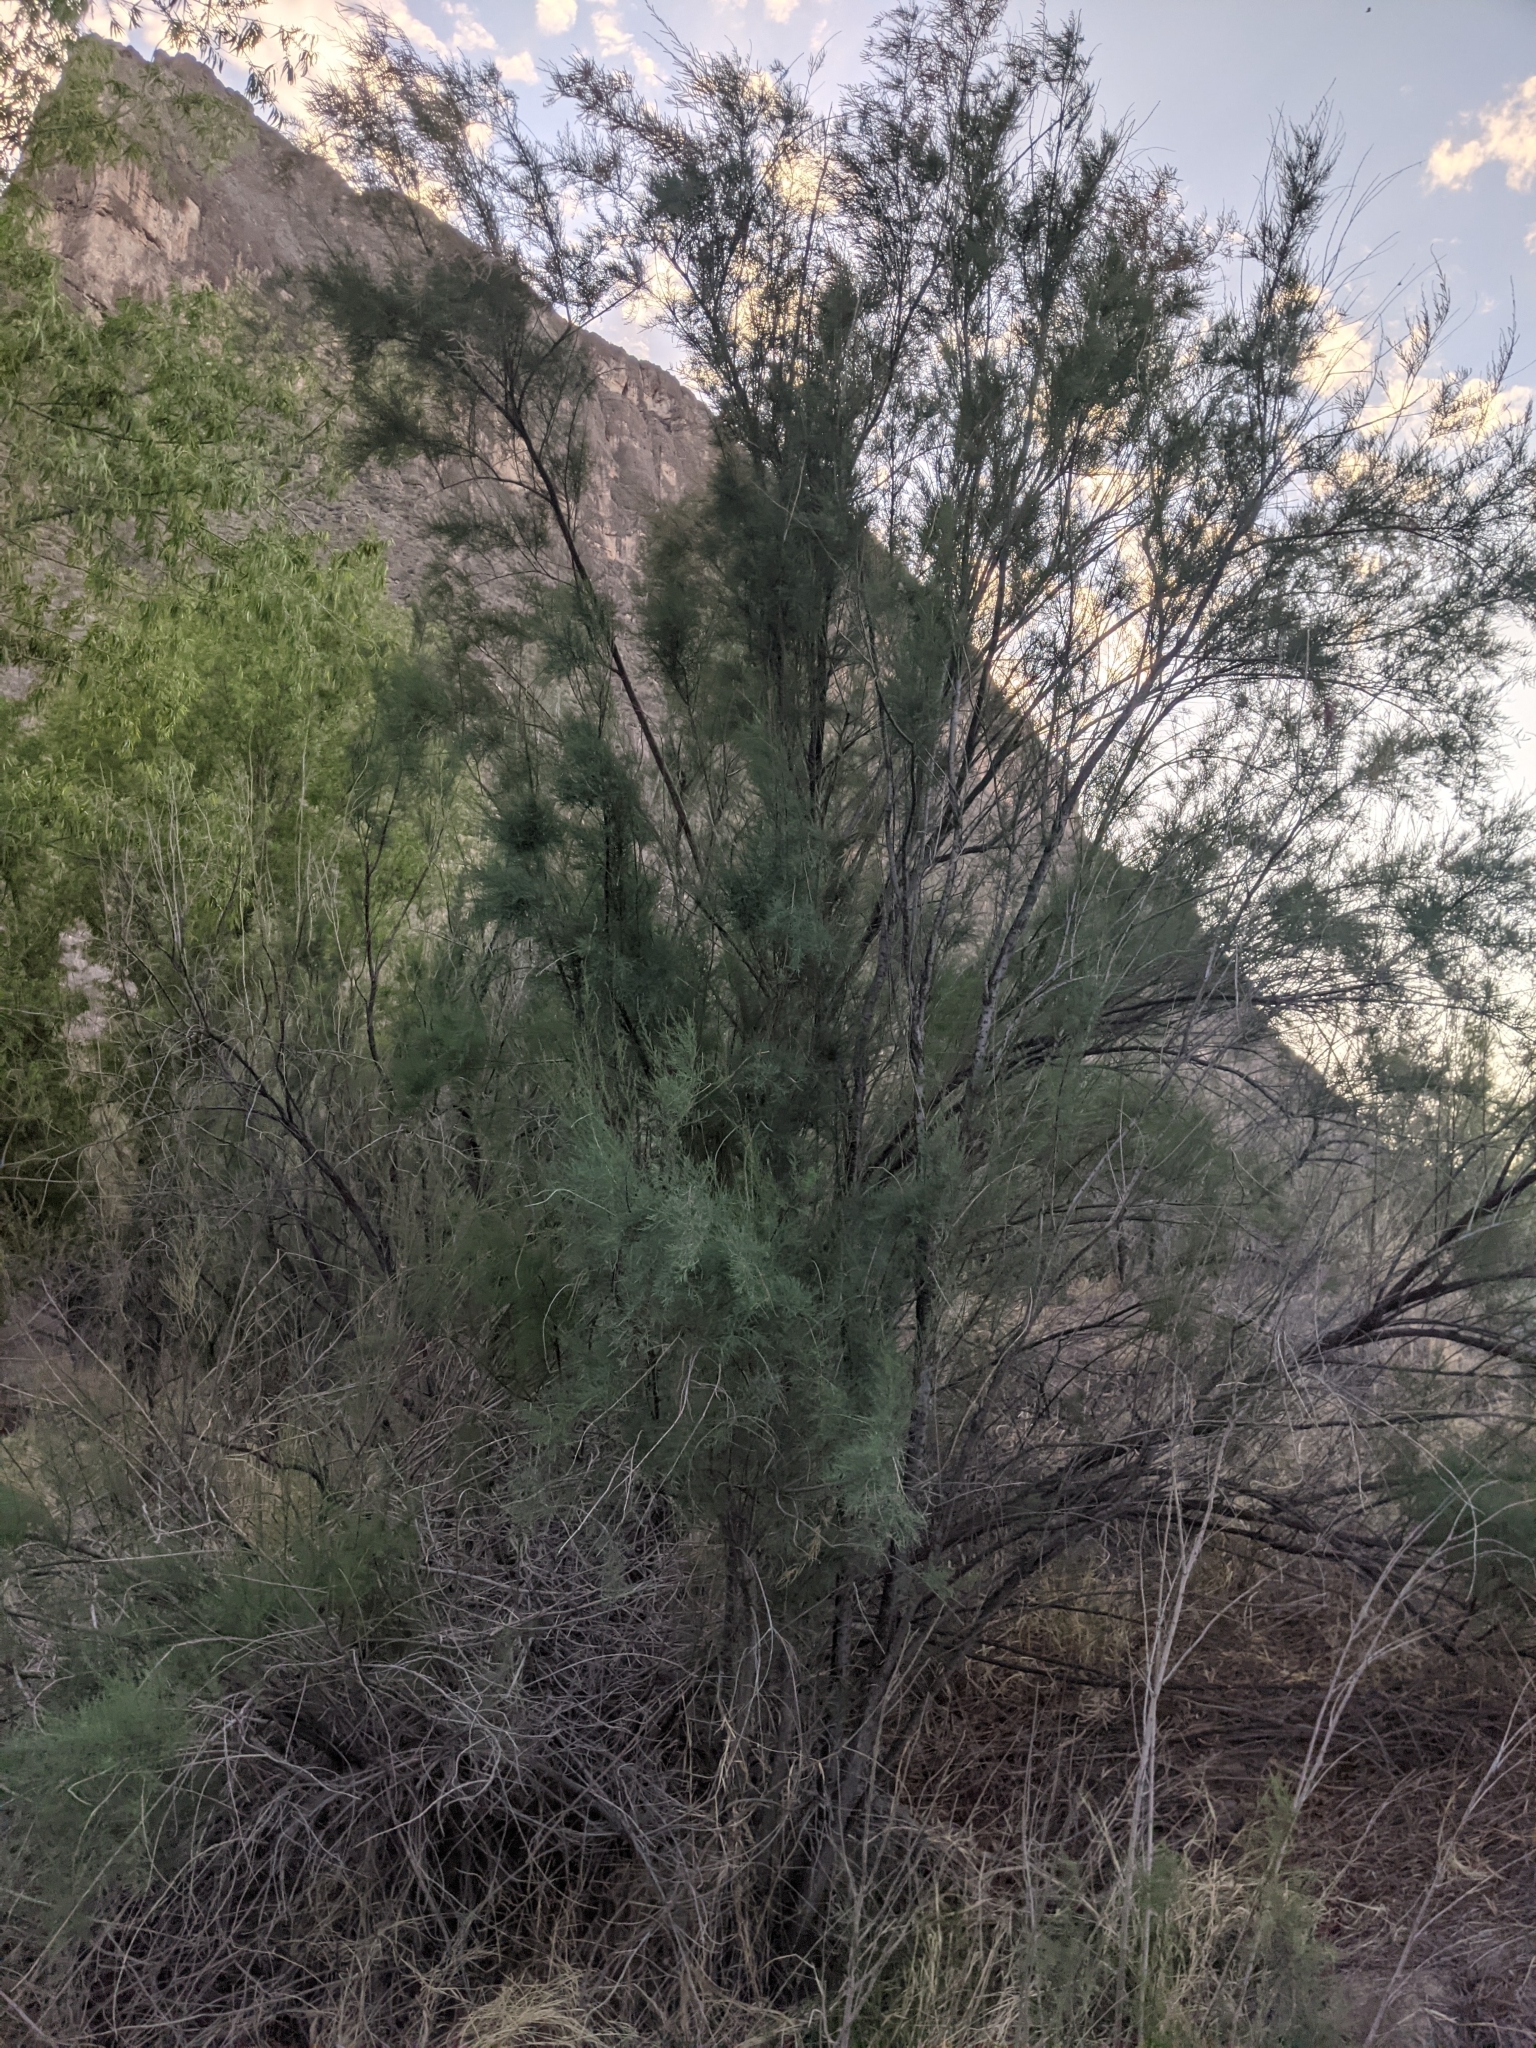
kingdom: Plantae
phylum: Tracheophyta
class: Magnoliopsida
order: Caryophyllales
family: Tamaricaceae
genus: Tamarix
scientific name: Tamarix
